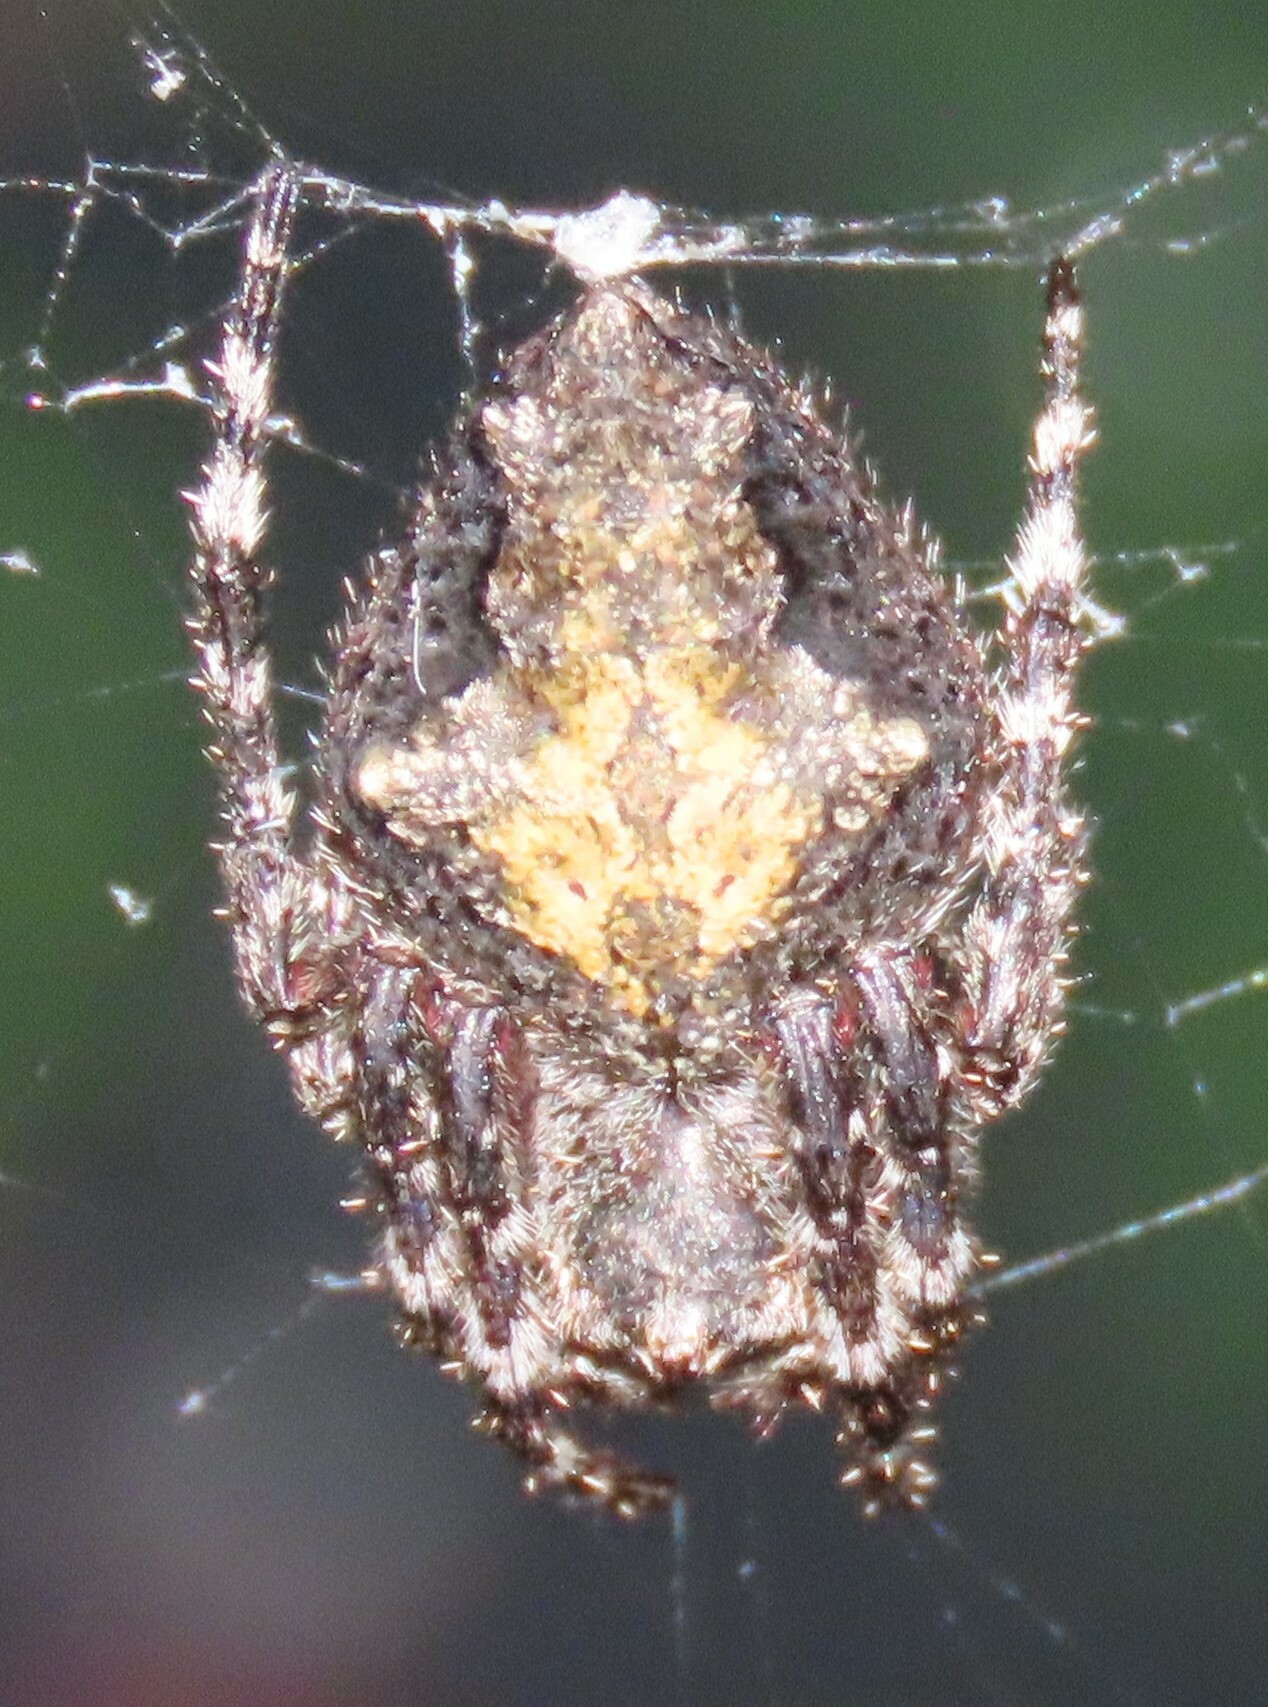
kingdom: Animalia
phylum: Arthropoda
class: Arachnida
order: Araneae
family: Araneidae
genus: Eriophora
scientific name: Eriophora pustulosa
